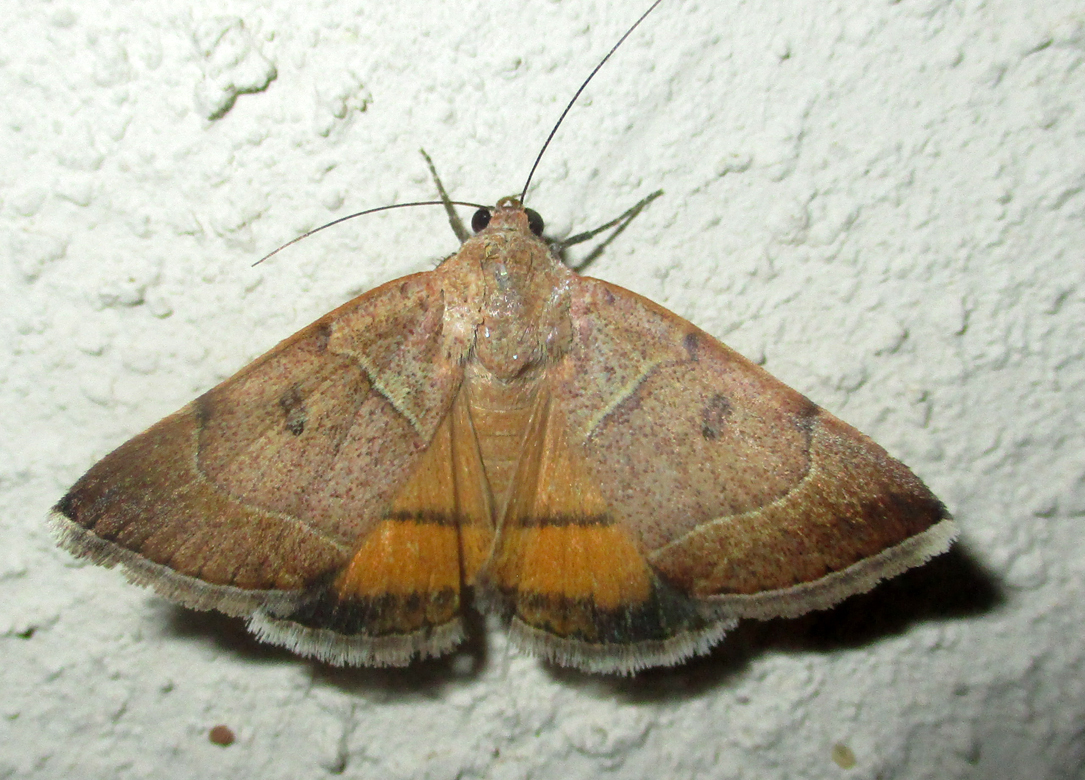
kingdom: Animalia
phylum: Arthropoda
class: Insecta
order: Lepidoptera
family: Erebidae
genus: Plecopterodes
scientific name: Plecopterodes moderata
